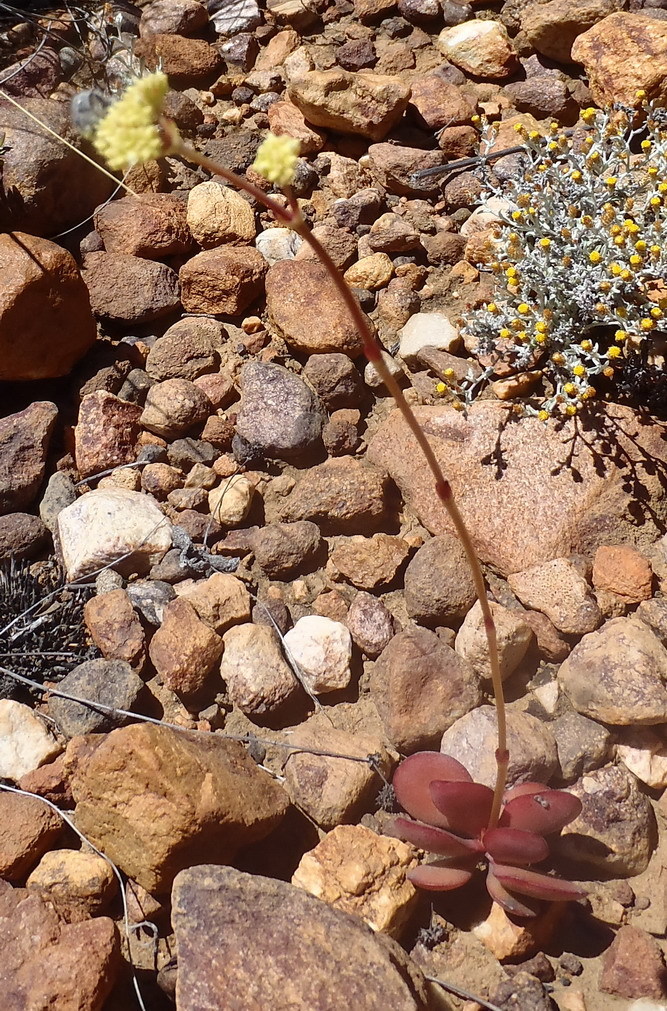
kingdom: Plantae
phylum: Tracheophyta
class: Magnoliopsida
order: Saxifragales
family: Crassulaceae
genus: Crassula
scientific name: Crassula atropurpurea
